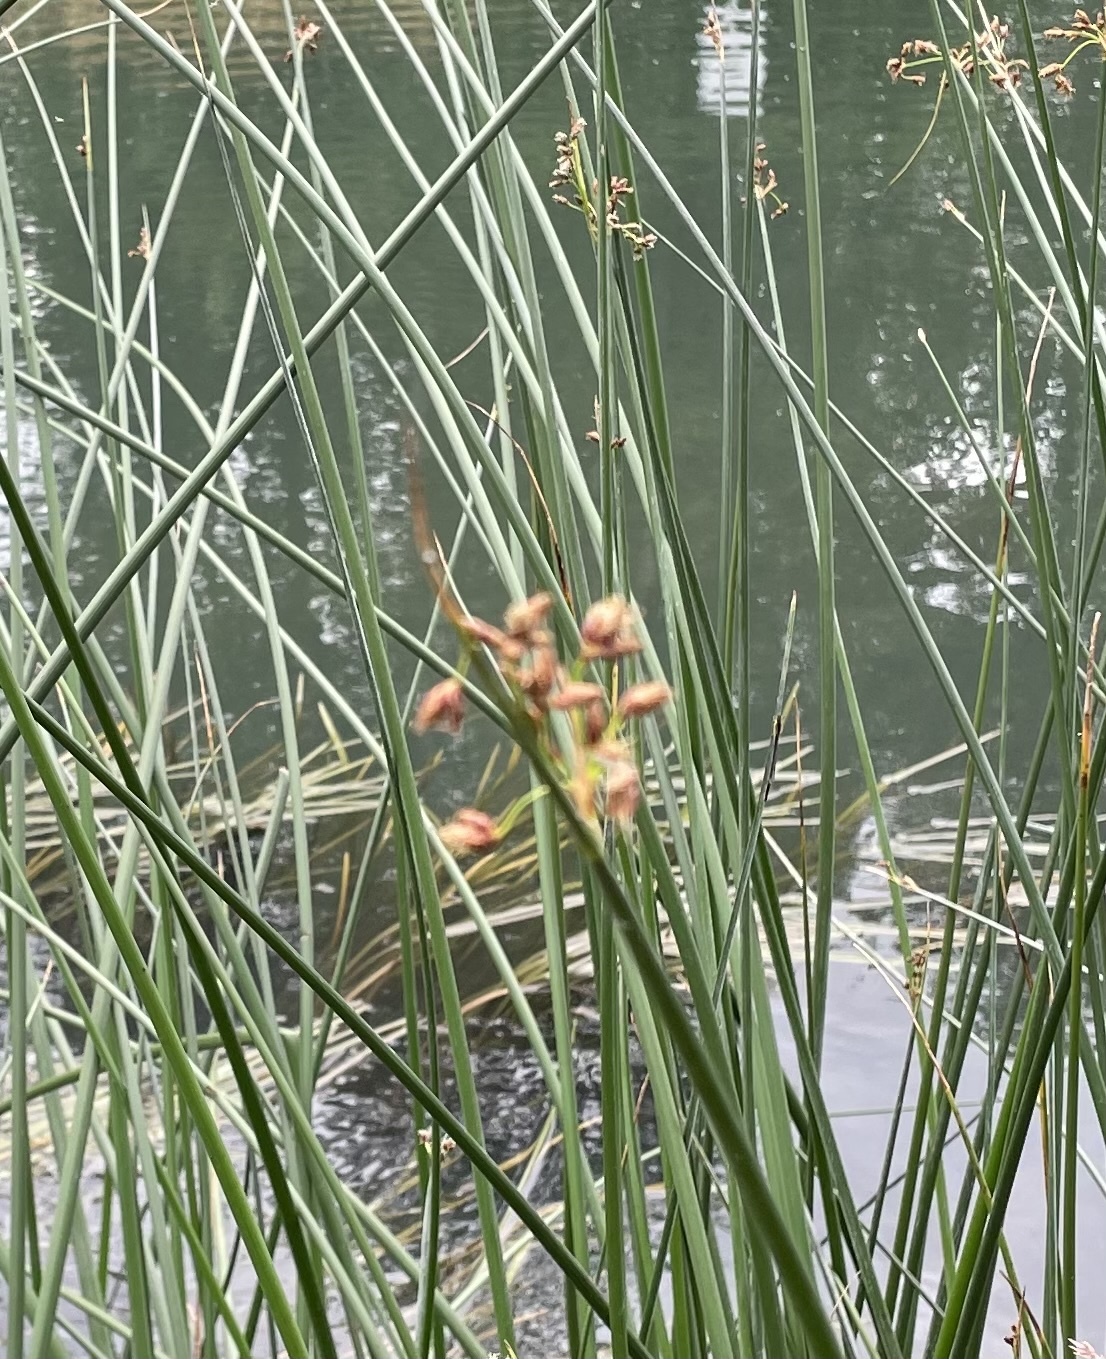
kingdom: Plantae
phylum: Tracheophyta
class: Liliopsida
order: Poales
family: Cyperaceae
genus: Schoenoplectus
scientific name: Schoenoplectus lacustris
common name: Common club-rush
